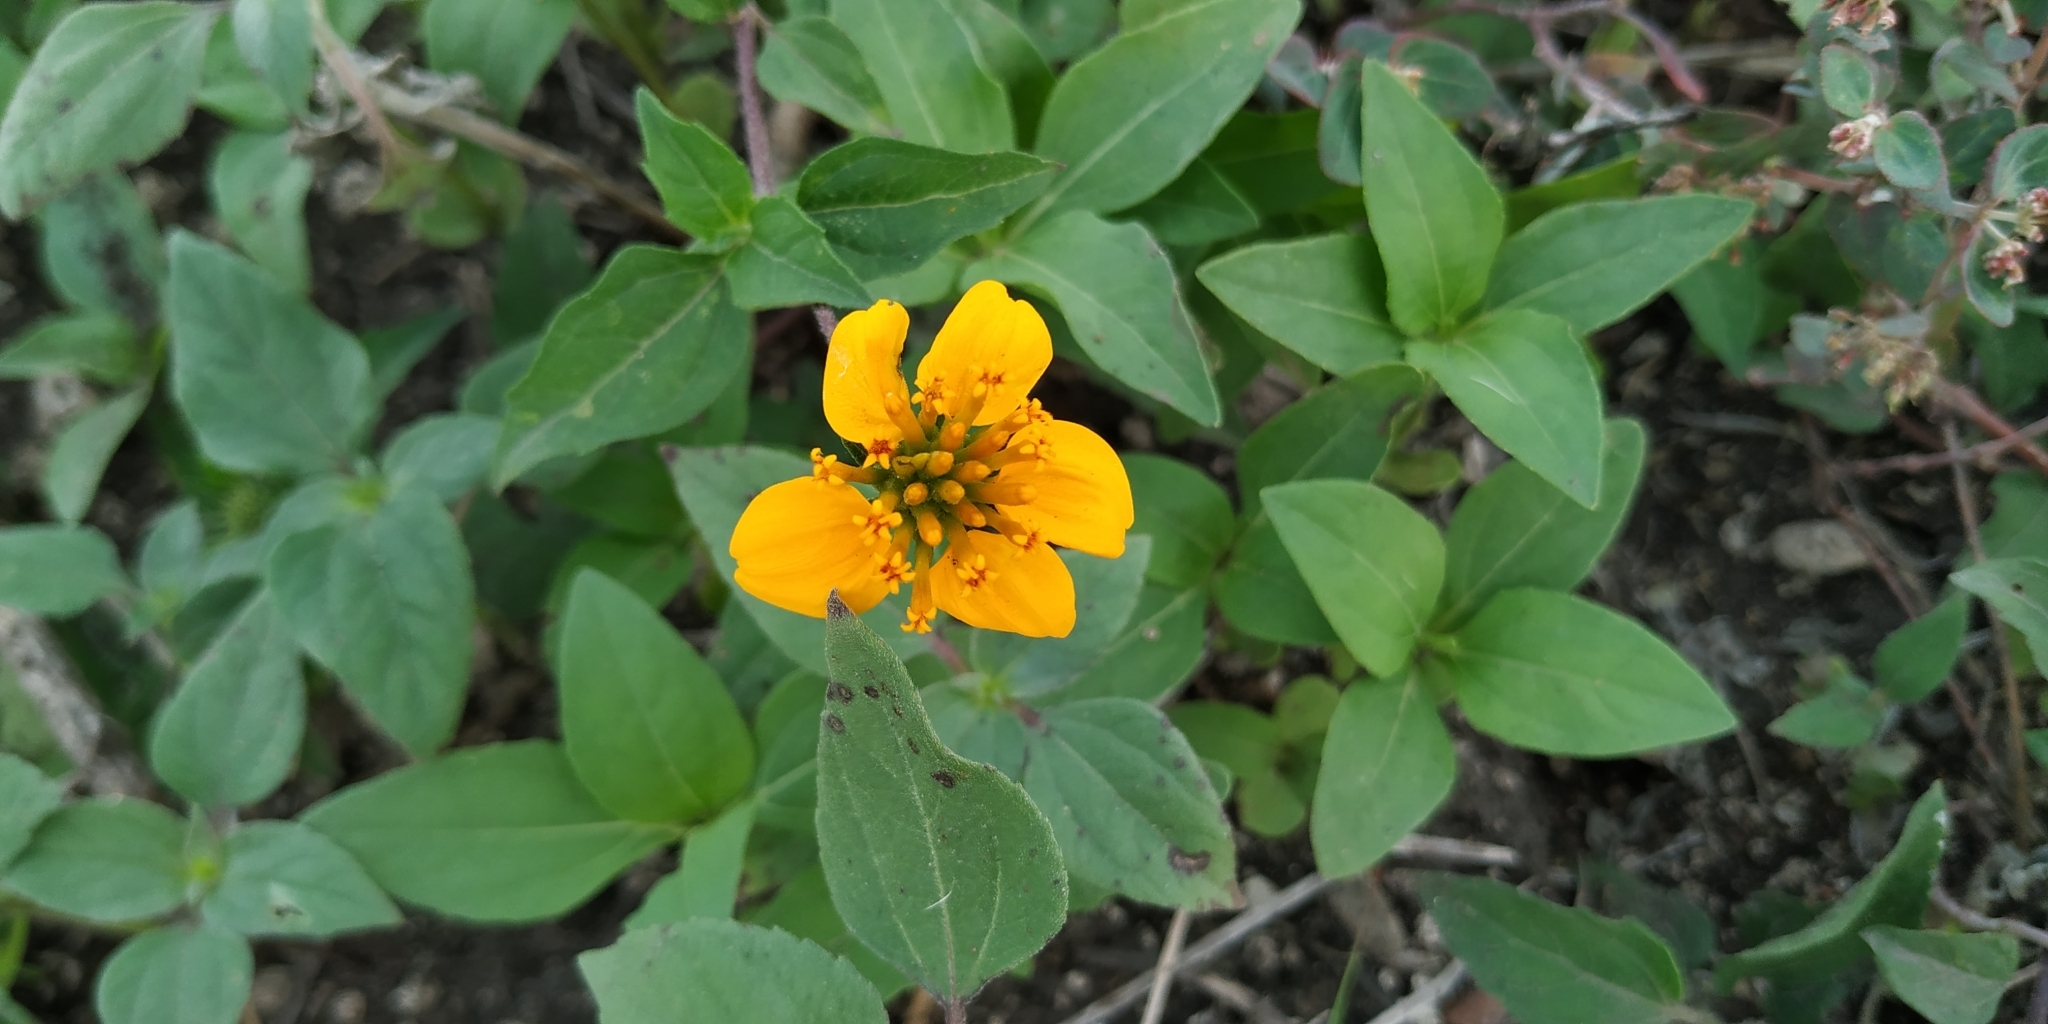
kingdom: Plantae
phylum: Tracheophyta
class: Magnoliopsida
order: Asterales
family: Asteraceae
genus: Sclerocarpus
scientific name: Sclerocarpus uniserialis
